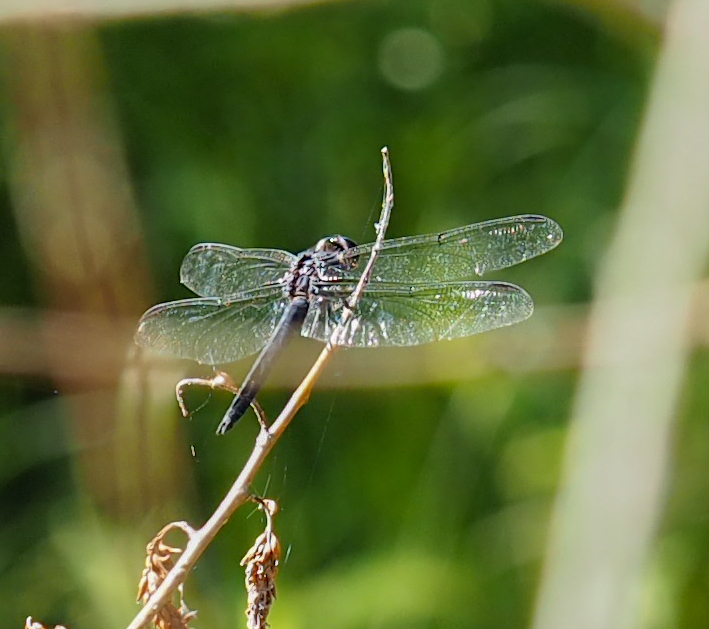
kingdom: Animalia
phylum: Arthropoda
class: Insecta
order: Odonata
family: Libellulidae
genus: Libellula
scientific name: Libellula incesta
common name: Slaty skimmer
